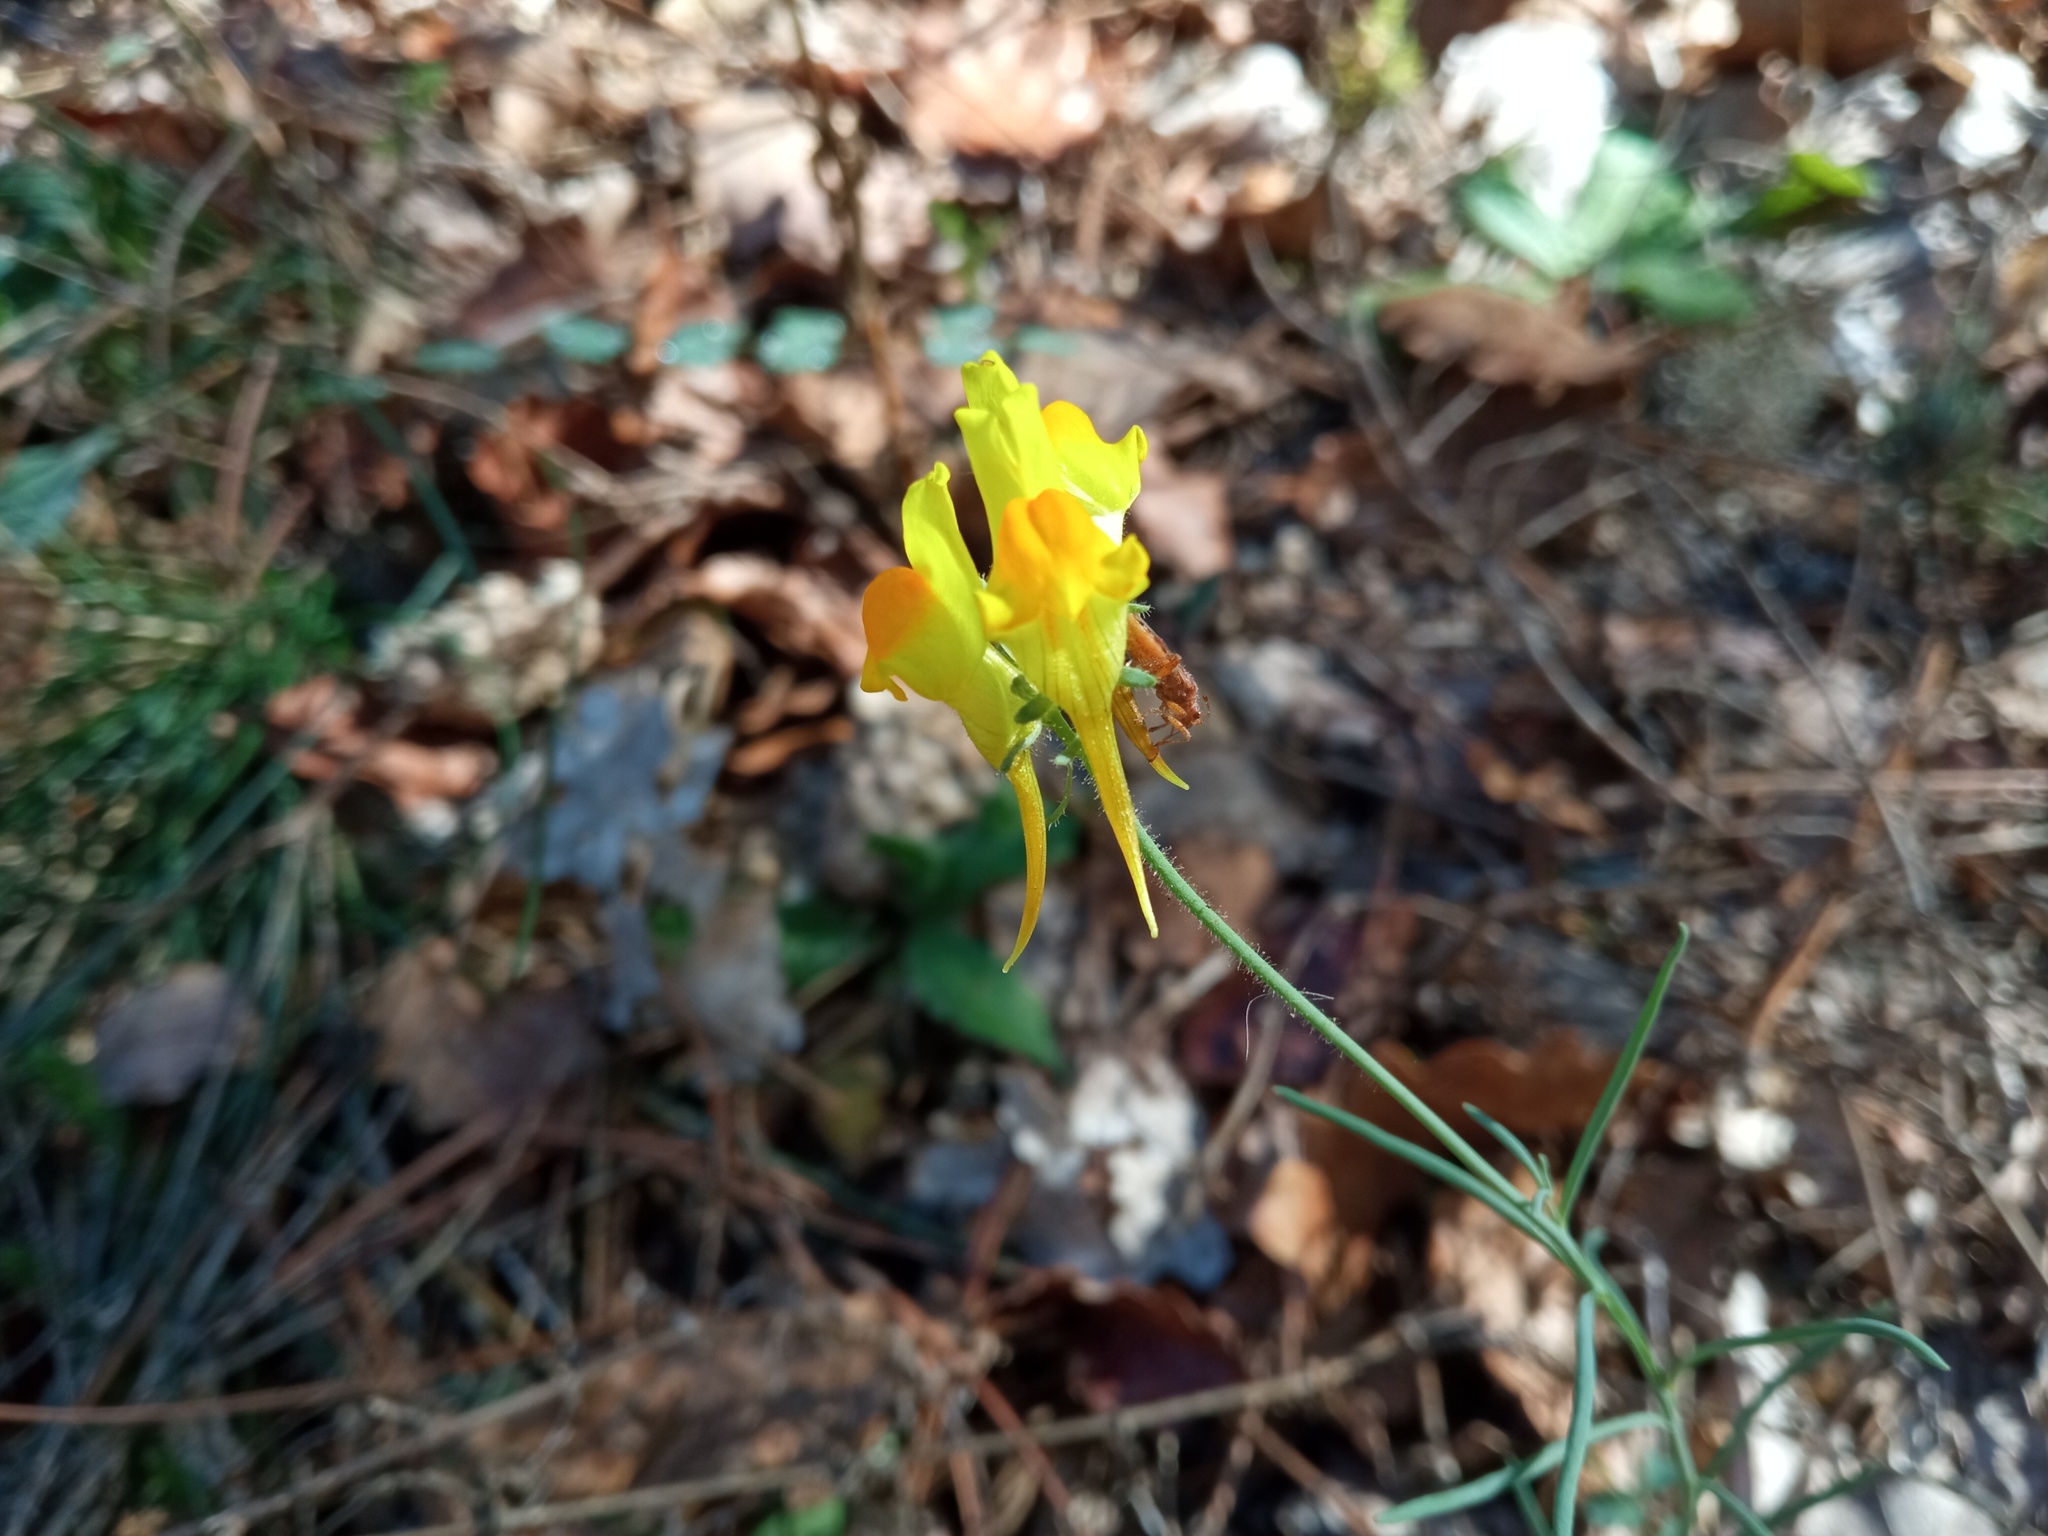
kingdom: Plantae
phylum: Tracheophyta
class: Magnoliopsida
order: Lamiales
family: Plantaginaceae
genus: Linaria
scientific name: Linaria supina
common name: Prostrate toadflax
